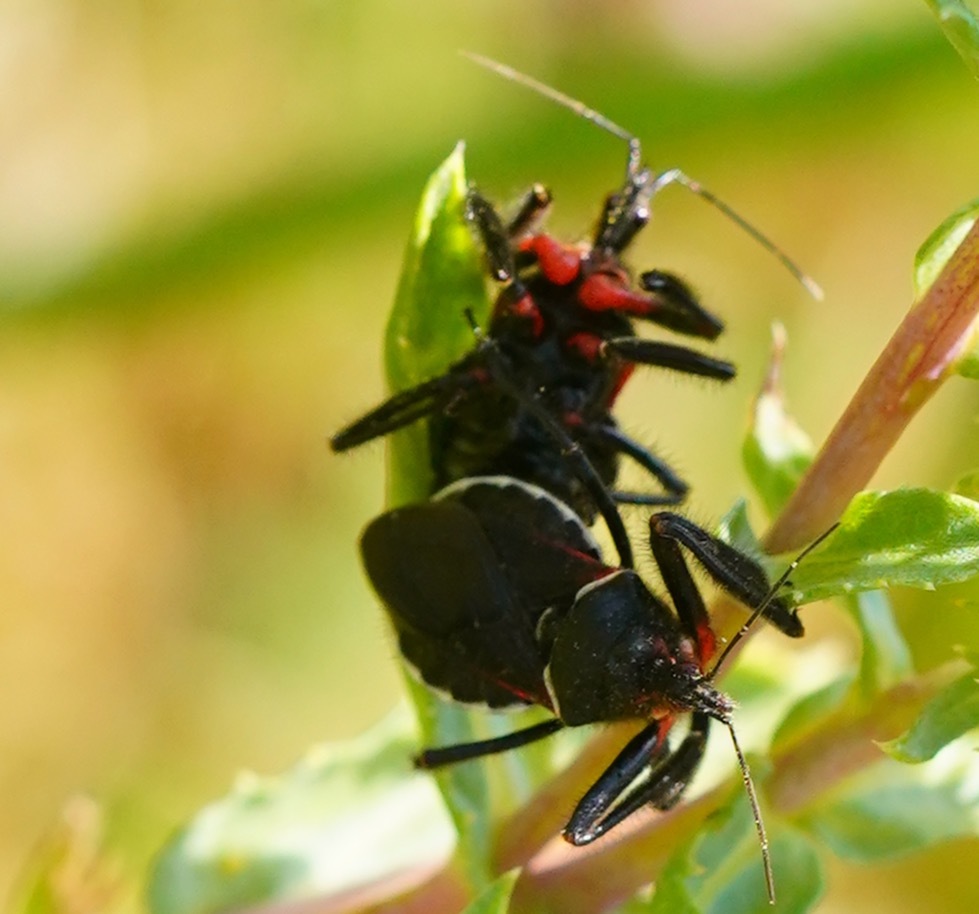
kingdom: Animalia
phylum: Arthropoda
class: Insecta
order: Hemiptera
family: Reduviidae
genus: Apiomerus
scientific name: Apiomerus californicus
